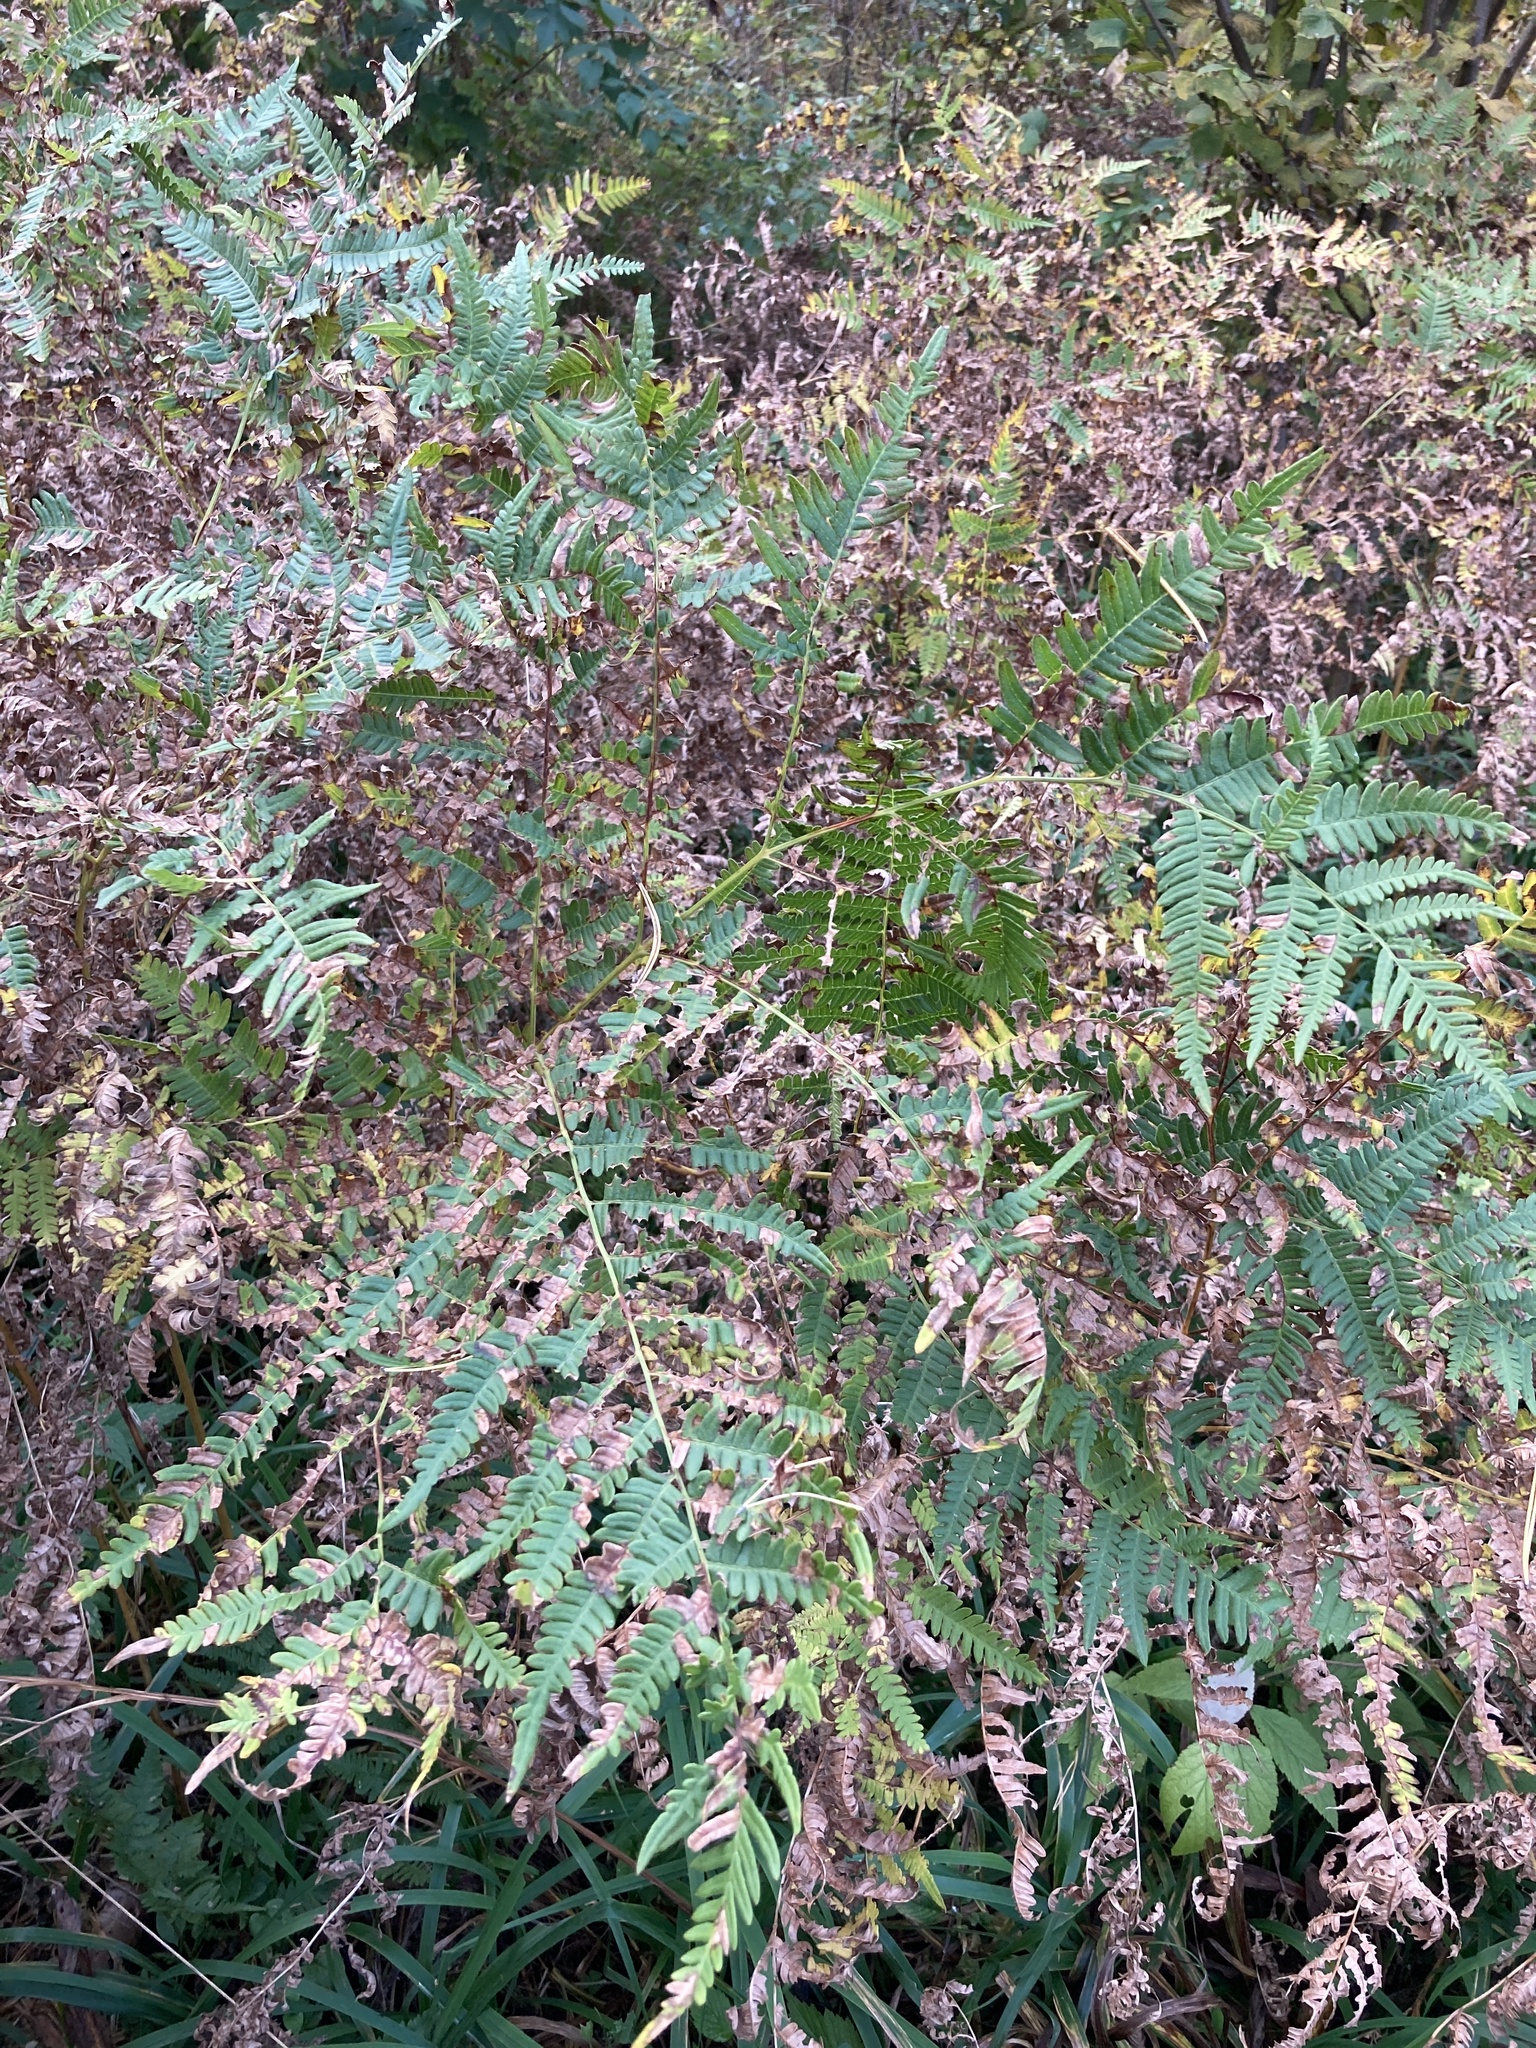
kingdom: Plantae
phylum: Tracheophyta
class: Polypodiopsida
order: Polypodiales
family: Dennstaedtiaceae
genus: Pteridium
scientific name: Pteridium aquilinum
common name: Bracken
